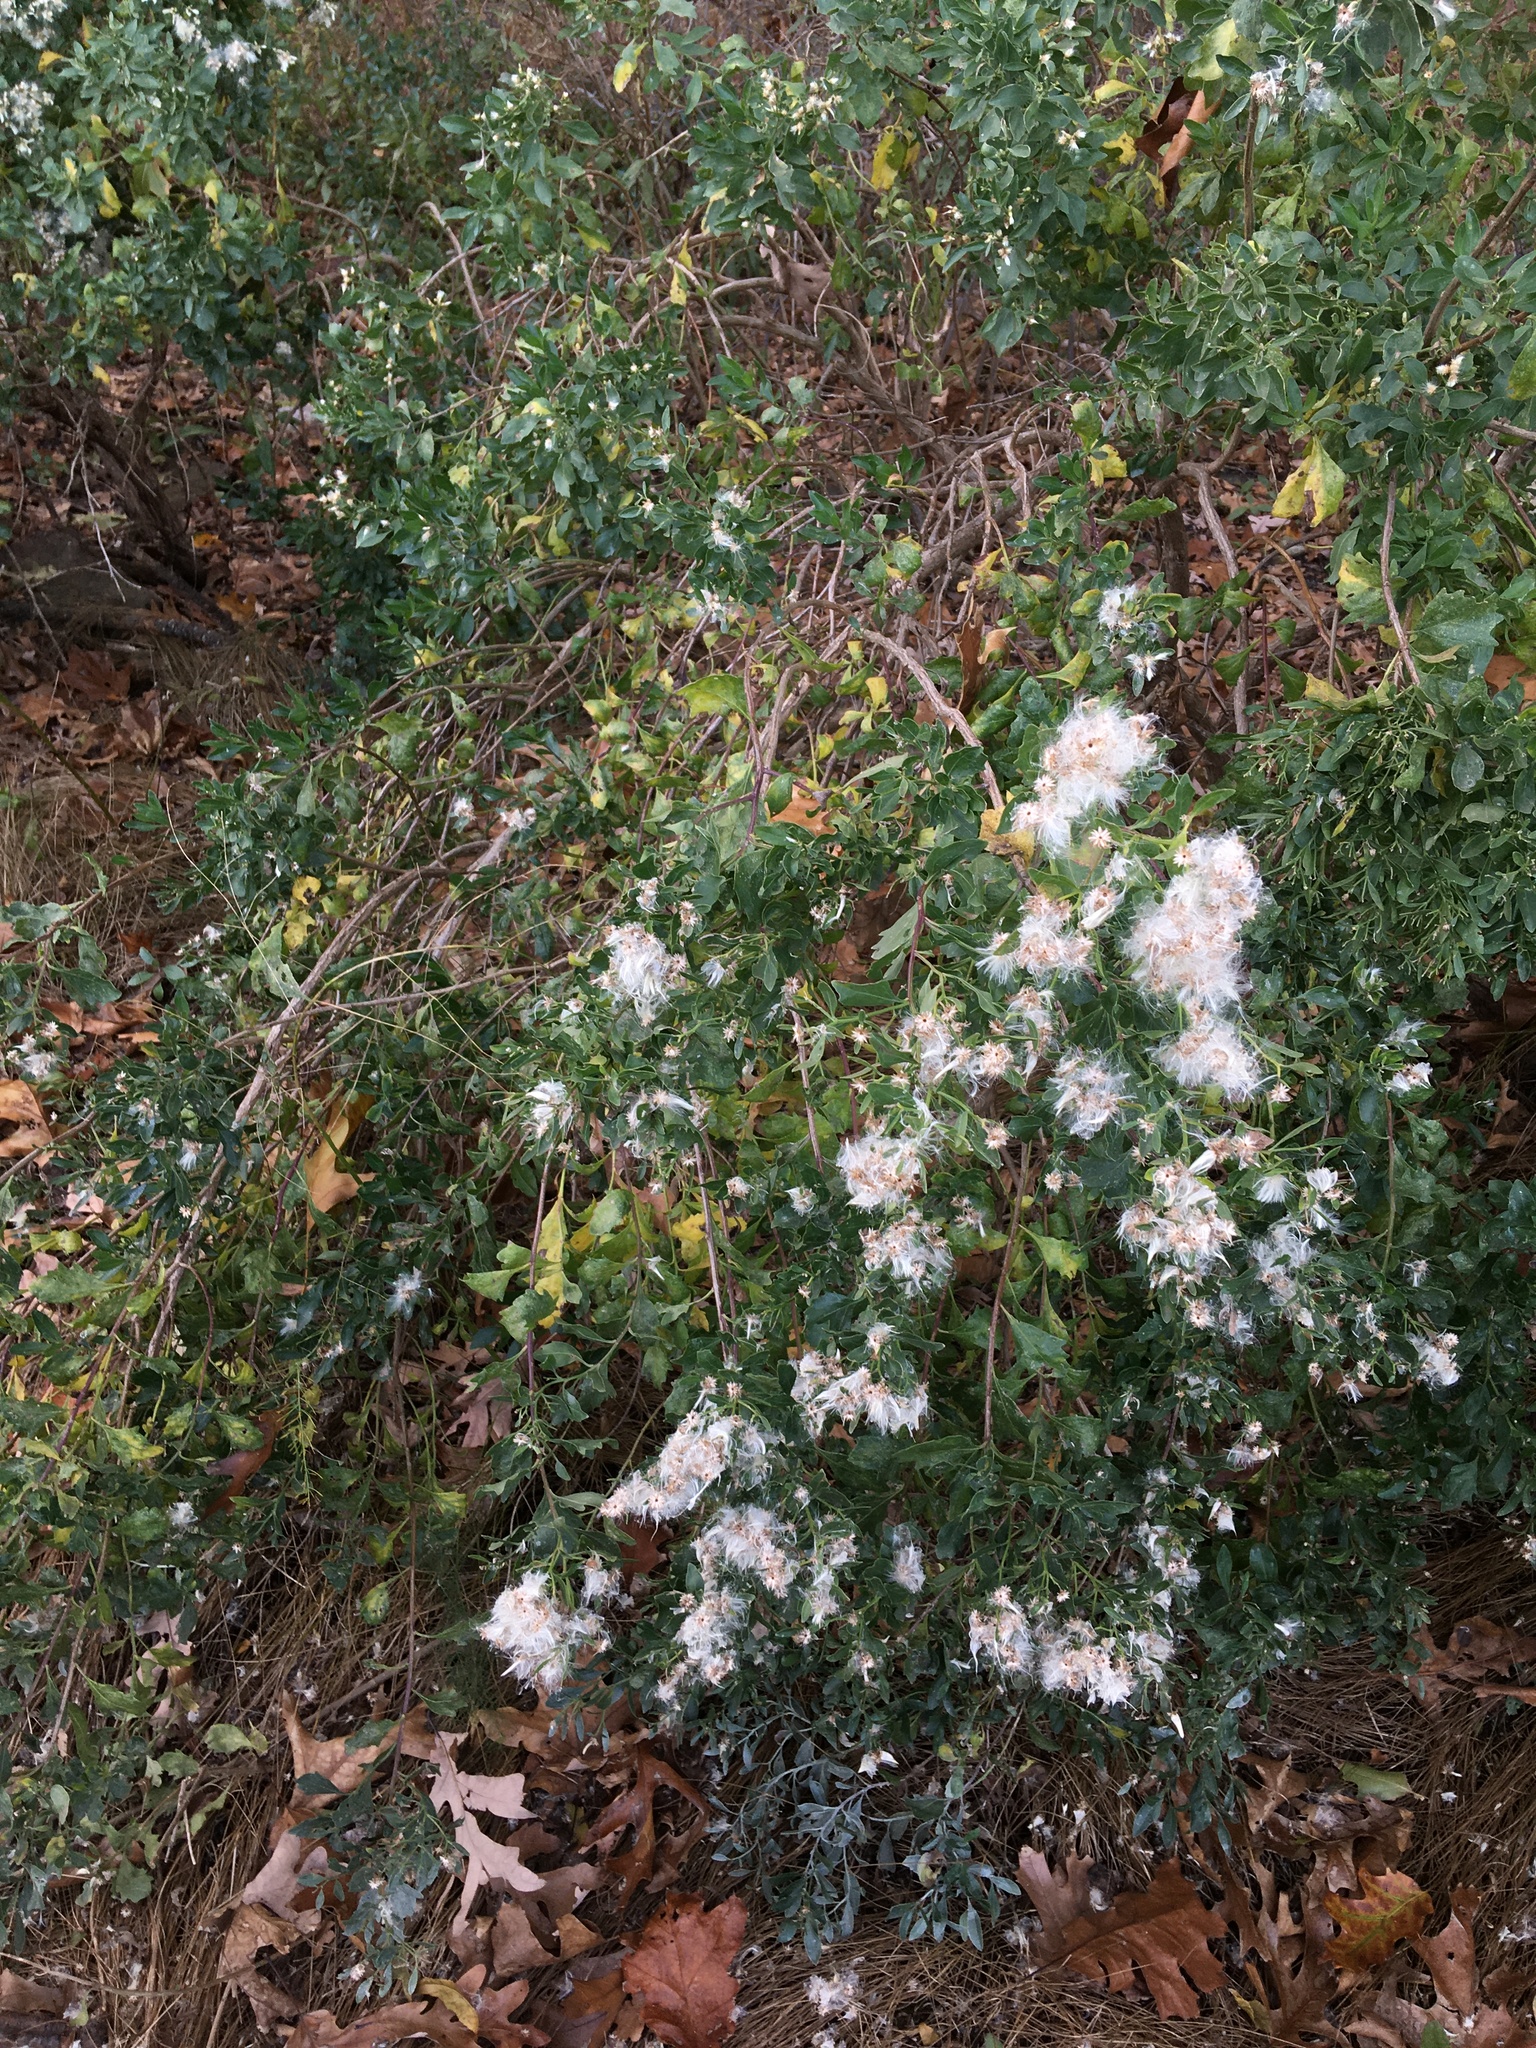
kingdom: Plantae
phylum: Tracheophyta
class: Magnoliopsida
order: Asterales
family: Asteraceae
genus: Baccharis
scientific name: Baccharis halimifolia
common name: Eastern baccharis
